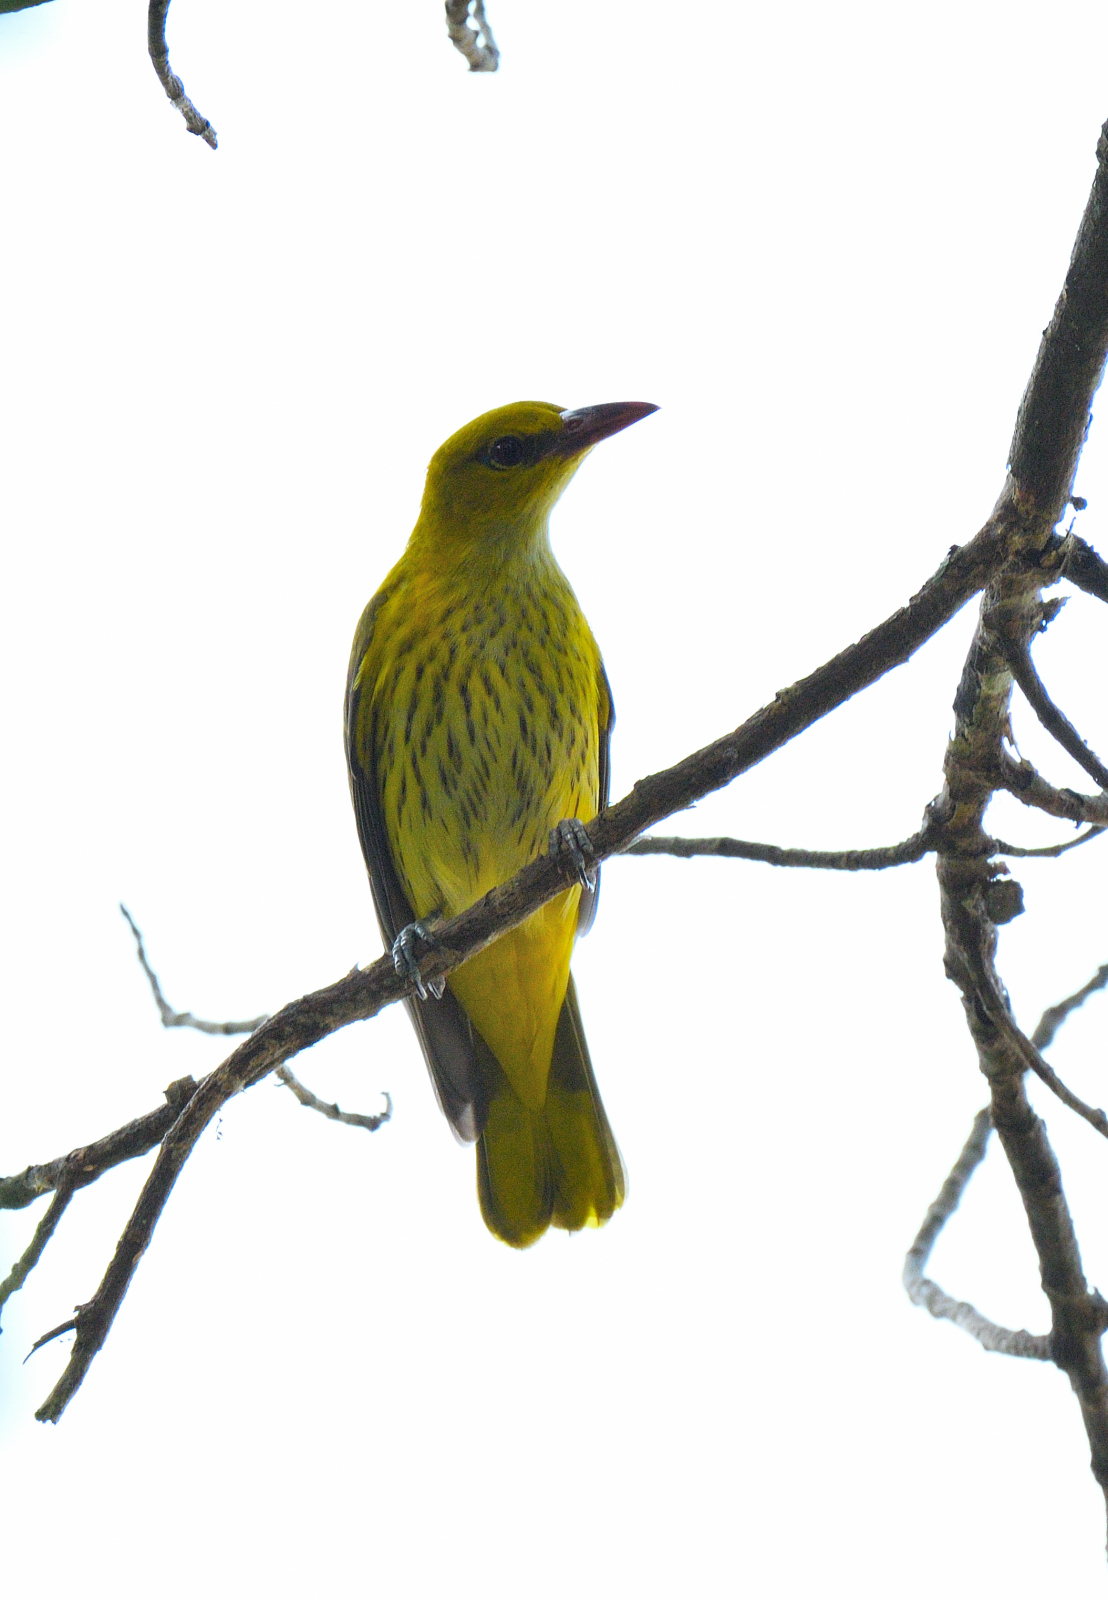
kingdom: Animalia
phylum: Chordata
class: Aves
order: Passeriformes
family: Oriolidae
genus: Oriolus
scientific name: Oriolus kundoo
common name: Indian golden oriole
